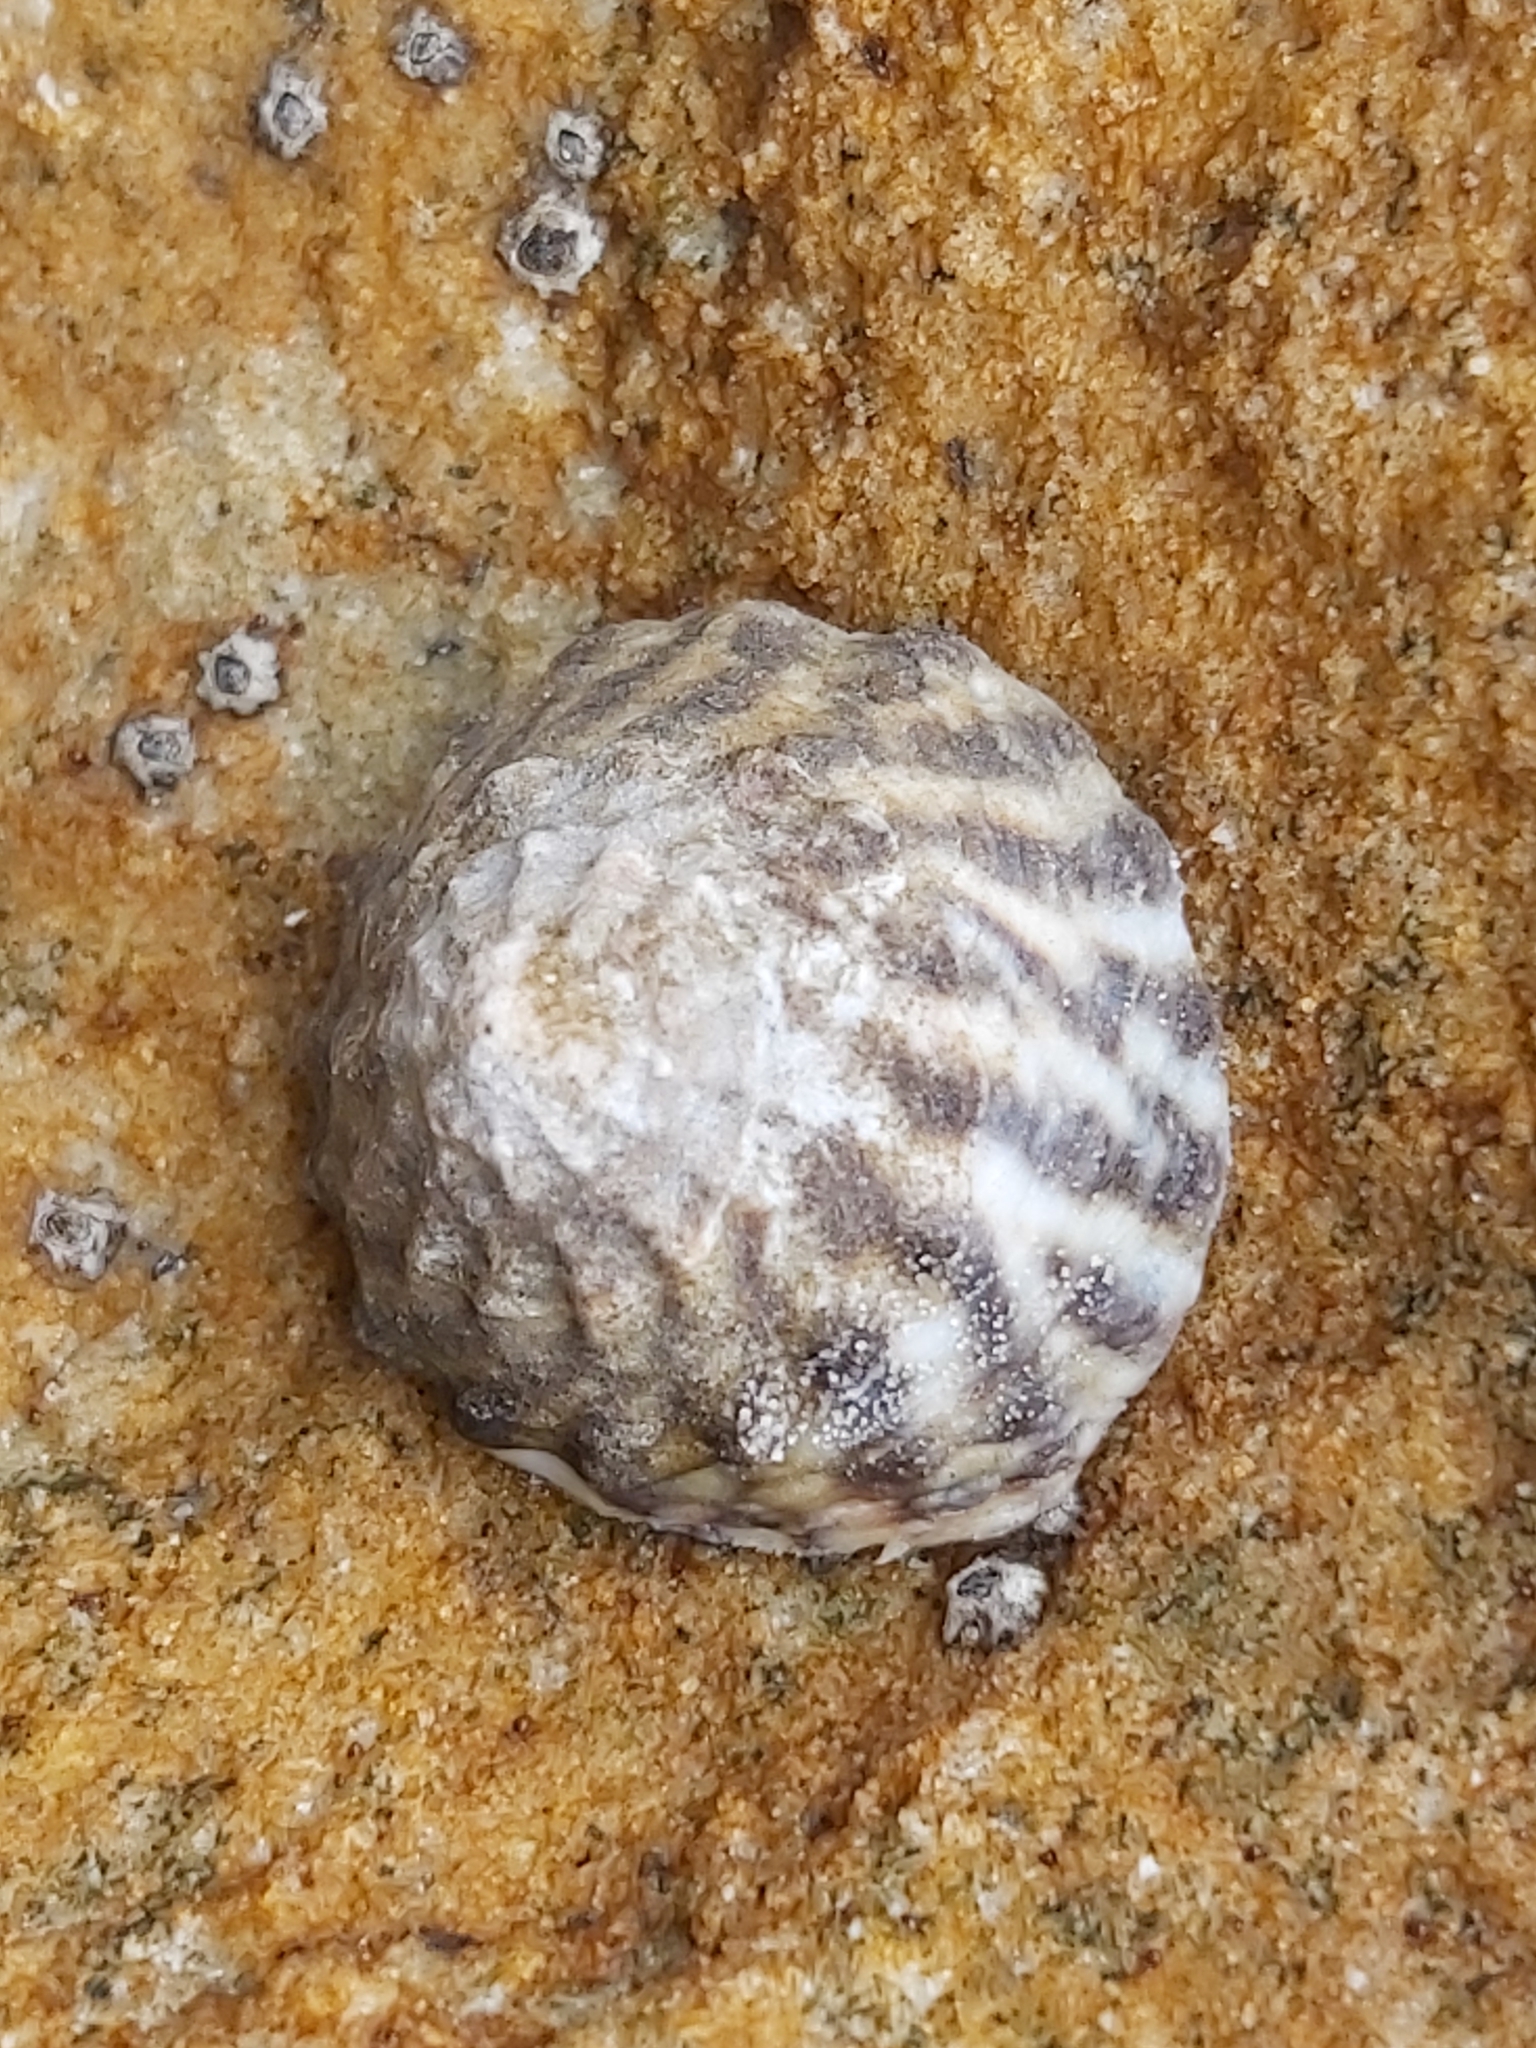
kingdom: Animalia
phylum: Mollusca
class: Gastropoda
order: Littorinimorpha
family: Littorinidae
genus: Bembicium
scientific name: Bembicium nanum
